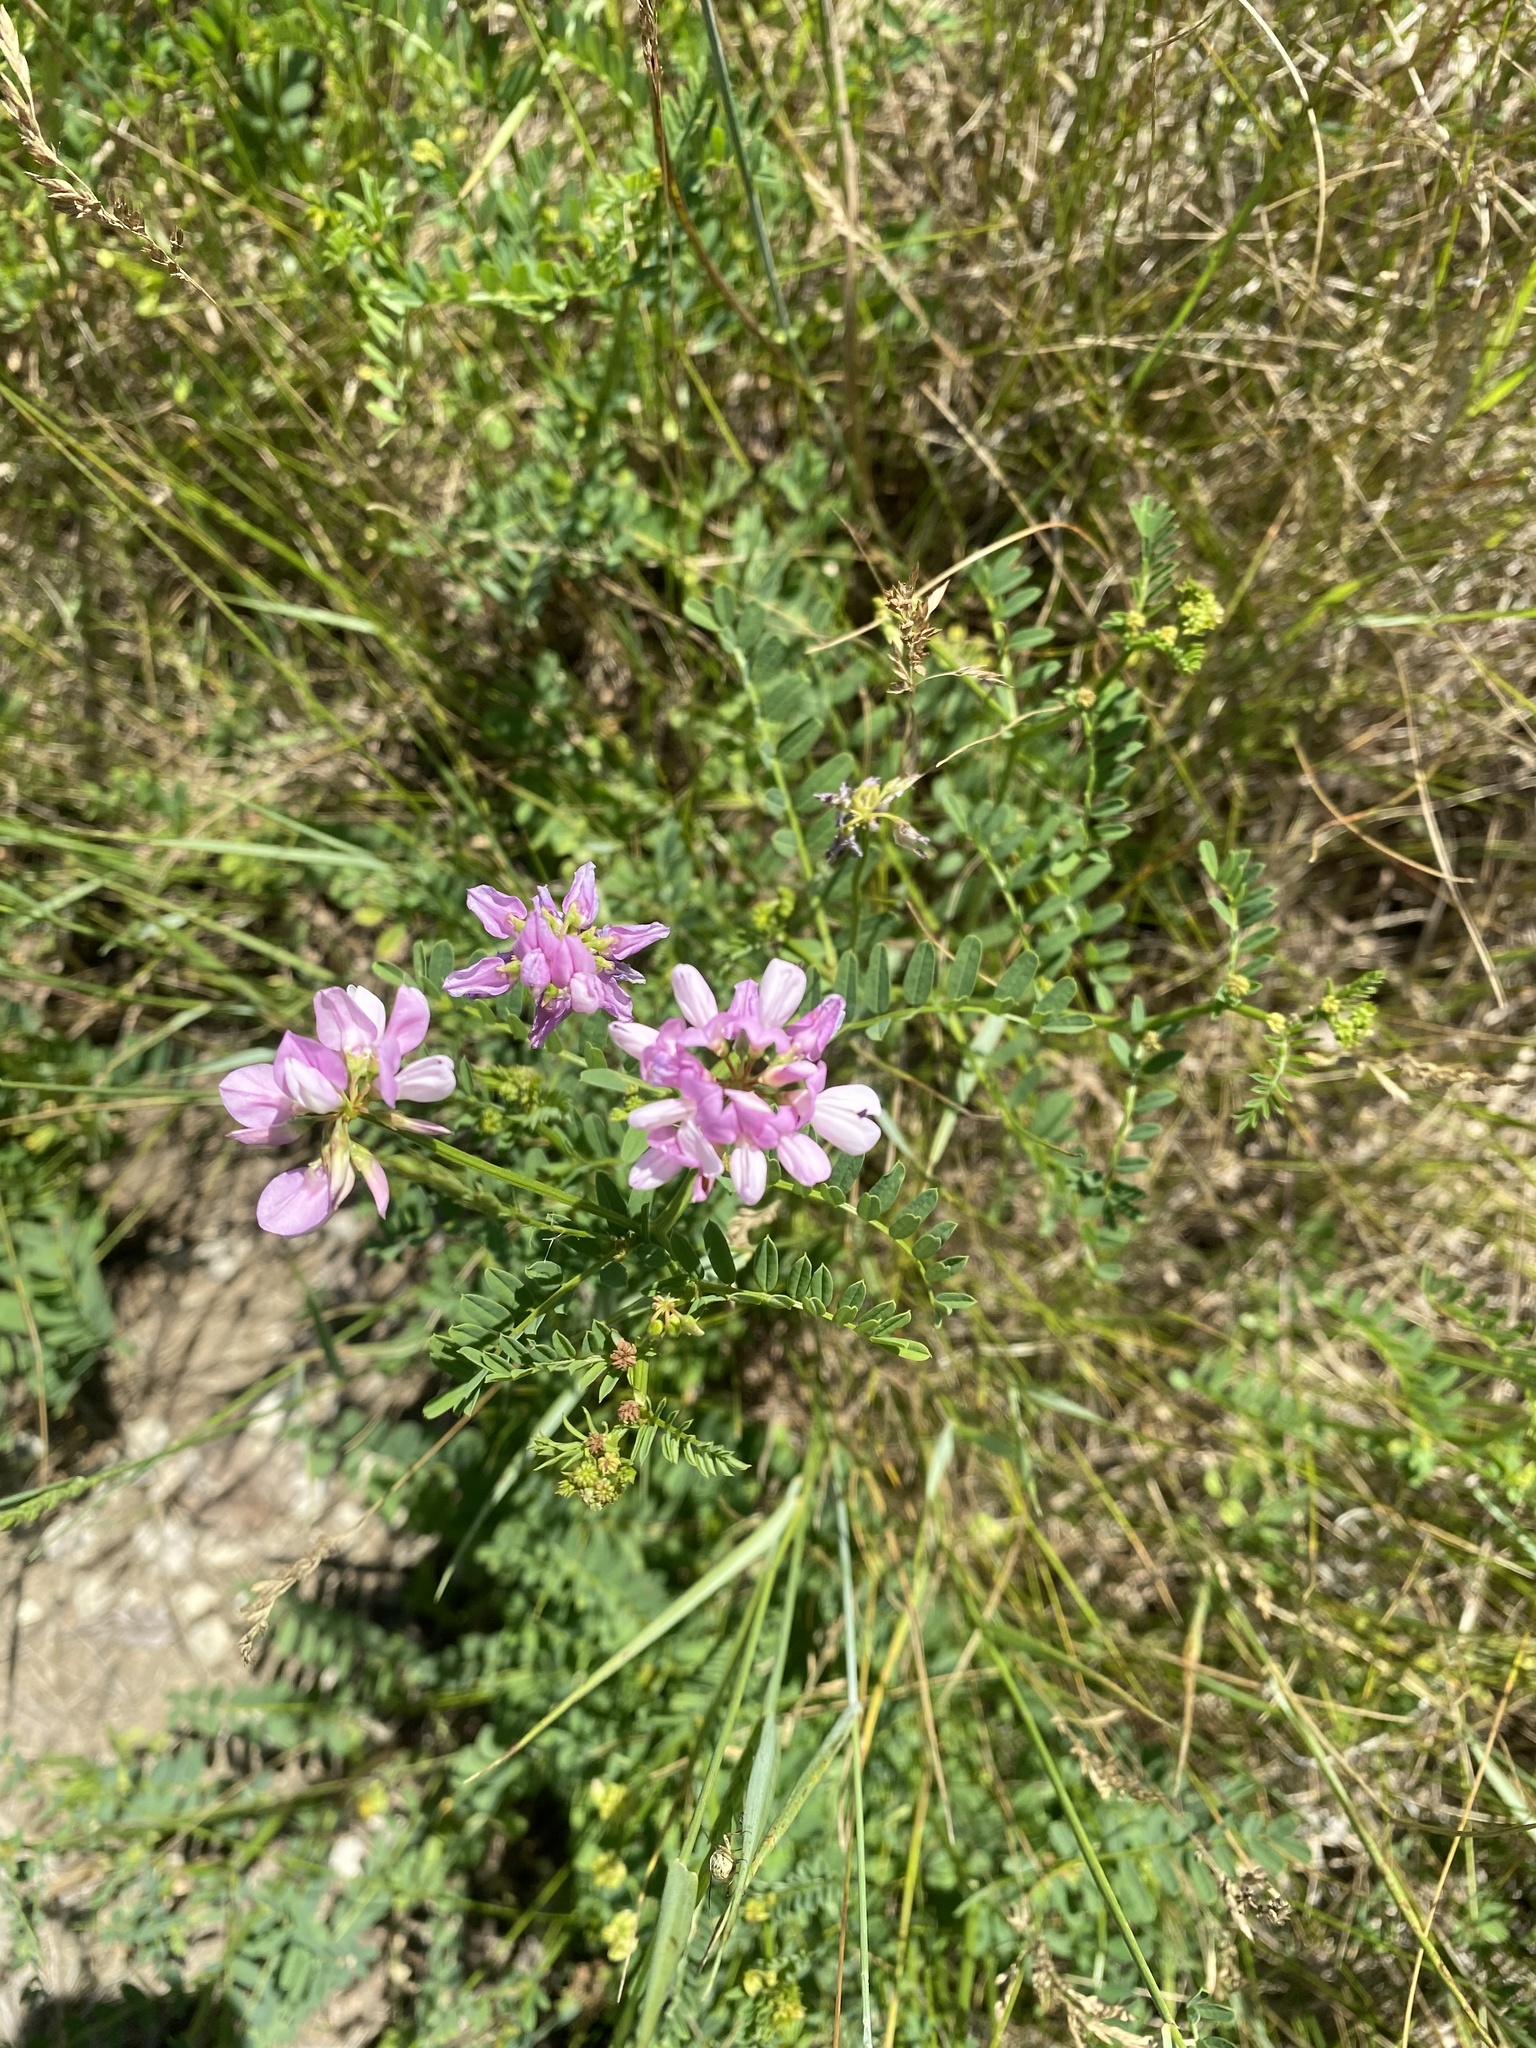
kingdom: Plantae
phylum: Tracheophyta
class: Magnoliopsida
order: Fabales
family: Fabaceae
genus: Coronilla
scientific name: Coronilla varia
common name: Crownvetch
